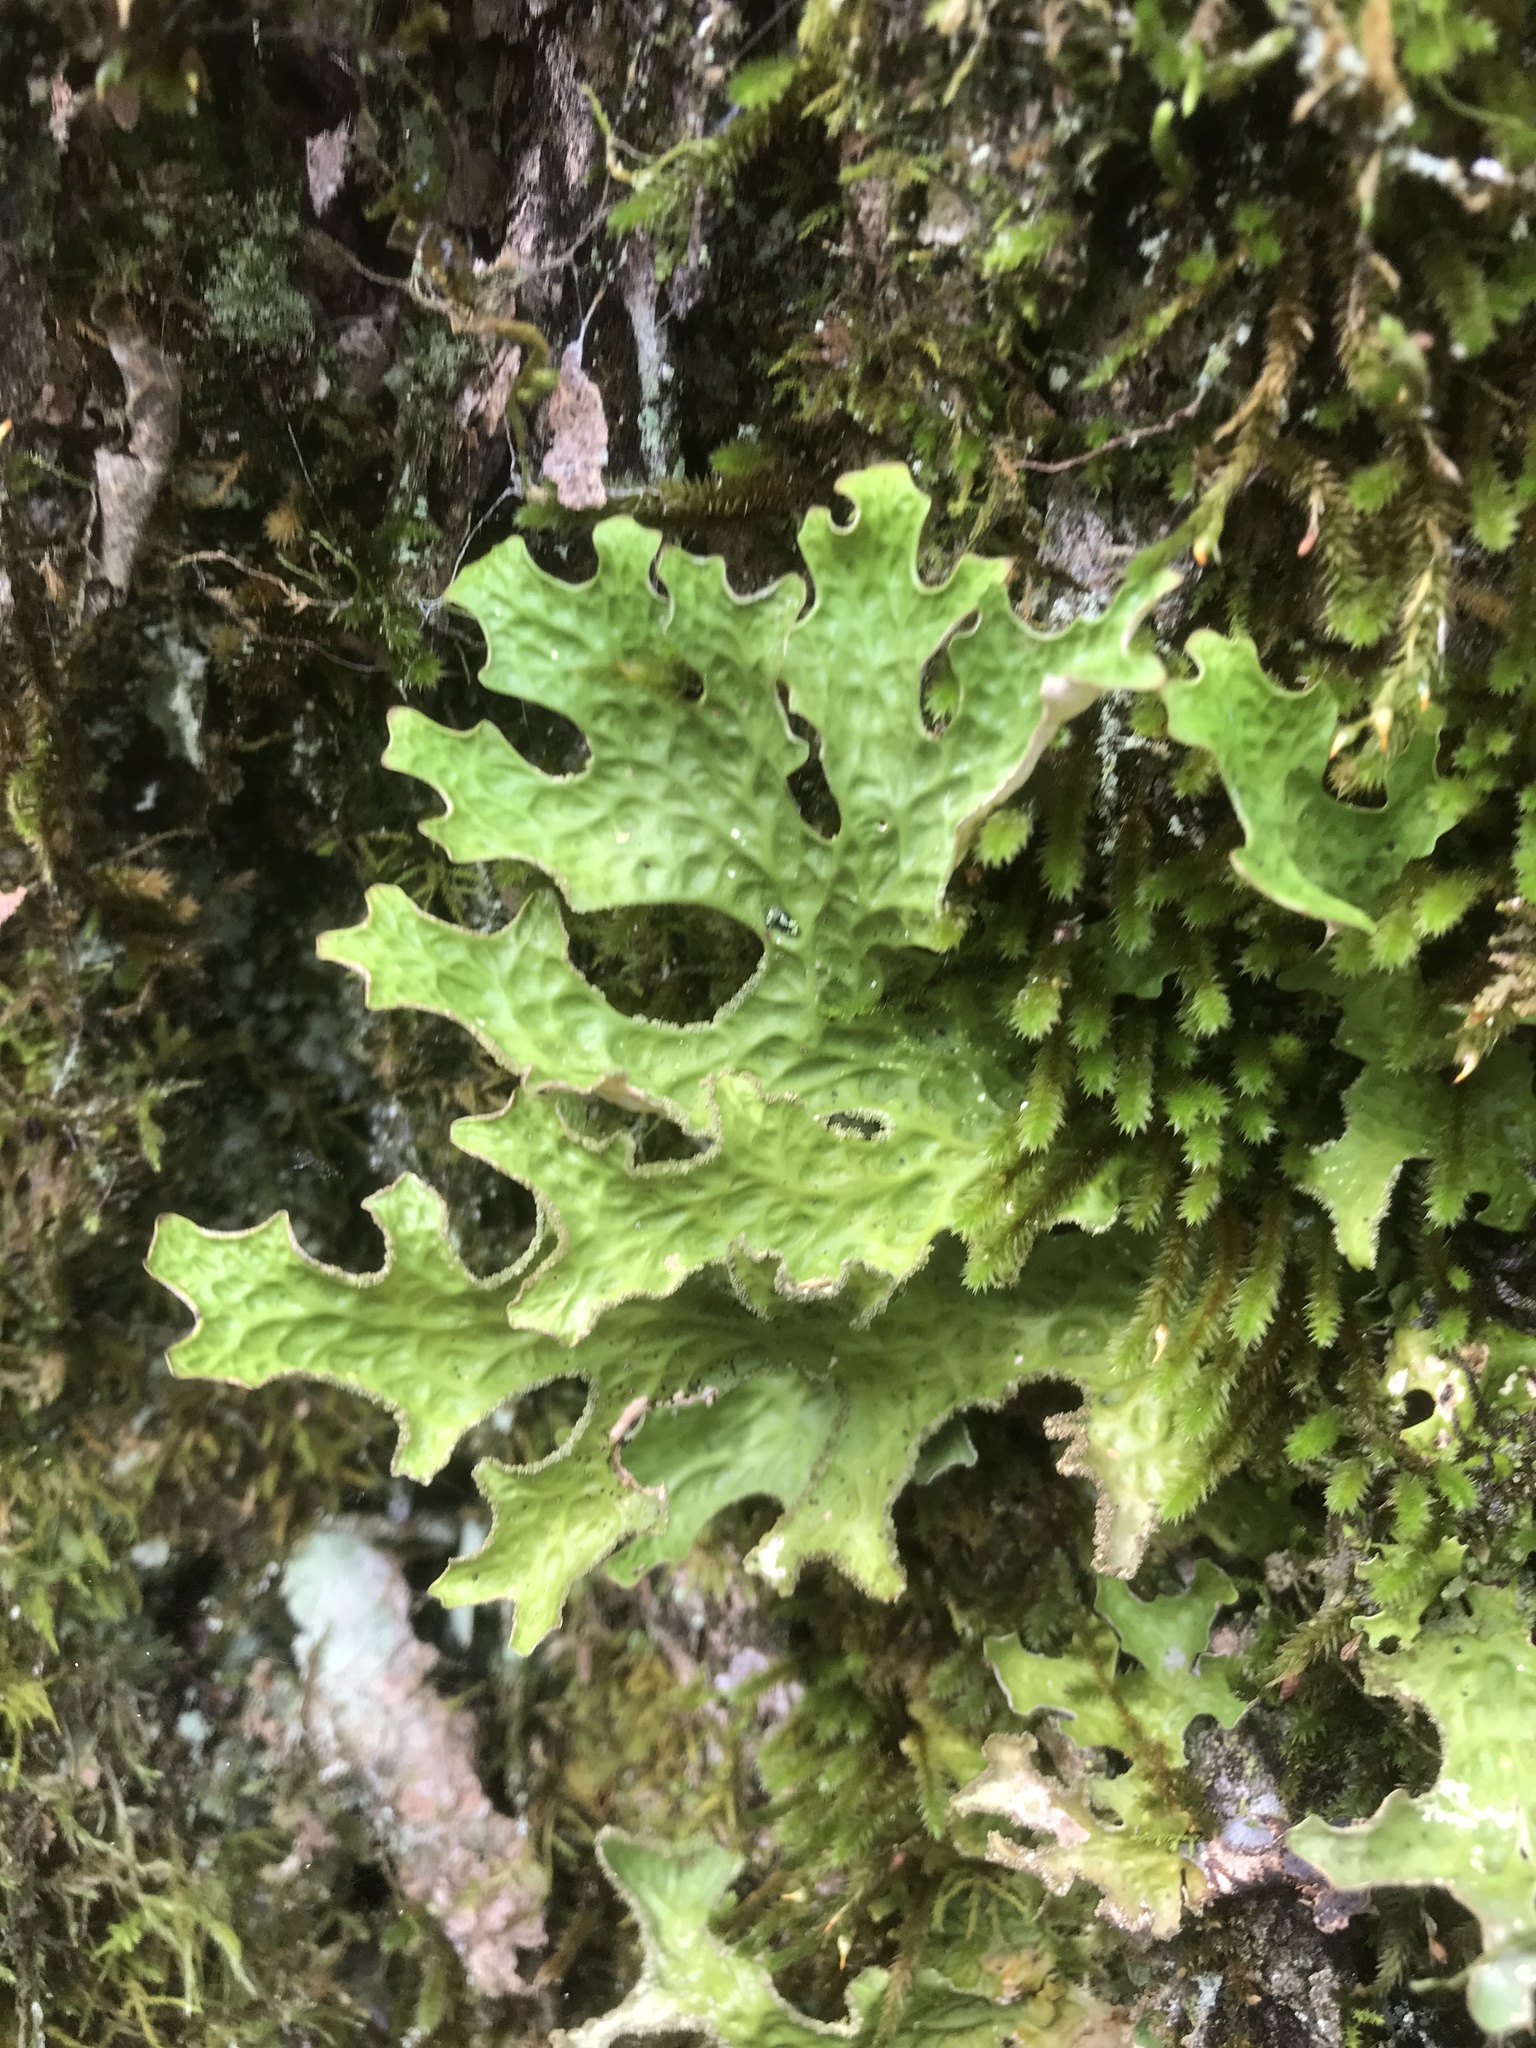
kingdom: Fungi
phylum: Ascomycota
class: Lecanoromycetes
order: Peltigerales
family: Lobariaceae
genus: Lobaria
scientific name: Lobaria pulmonaria
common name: Lungwort
